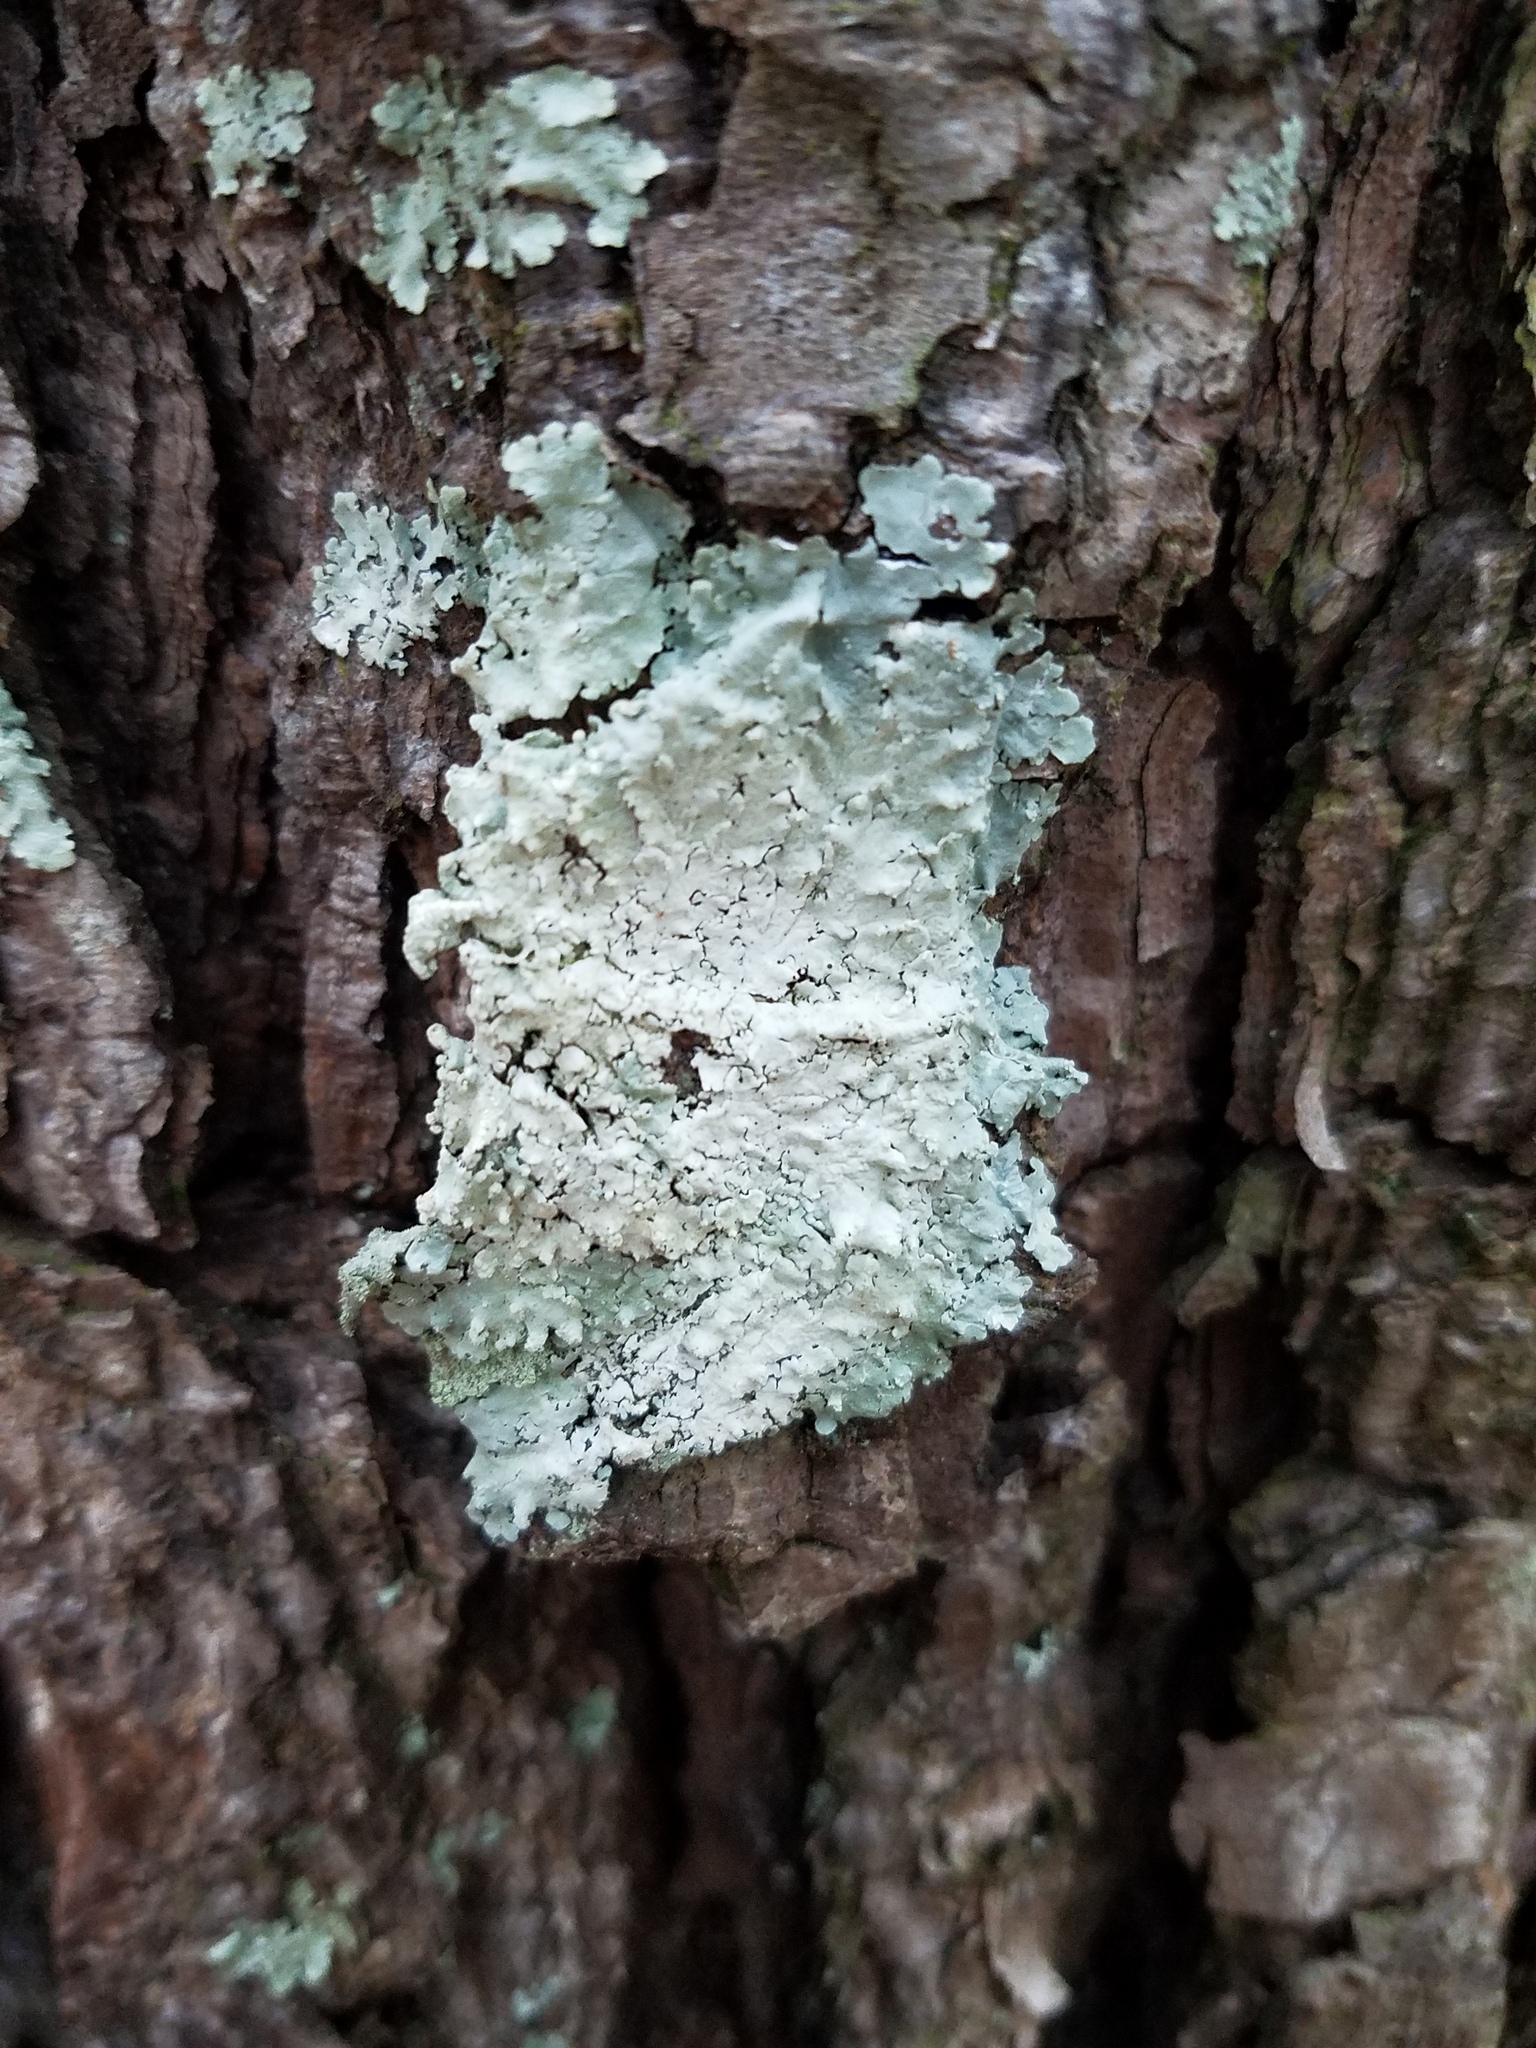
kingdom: Fungi
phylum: Ascomycota
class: Lecanoromycetes
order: Lecanorales
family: Parmeliaceae
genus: Canoparmelia
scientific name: Canoparmelia texana
